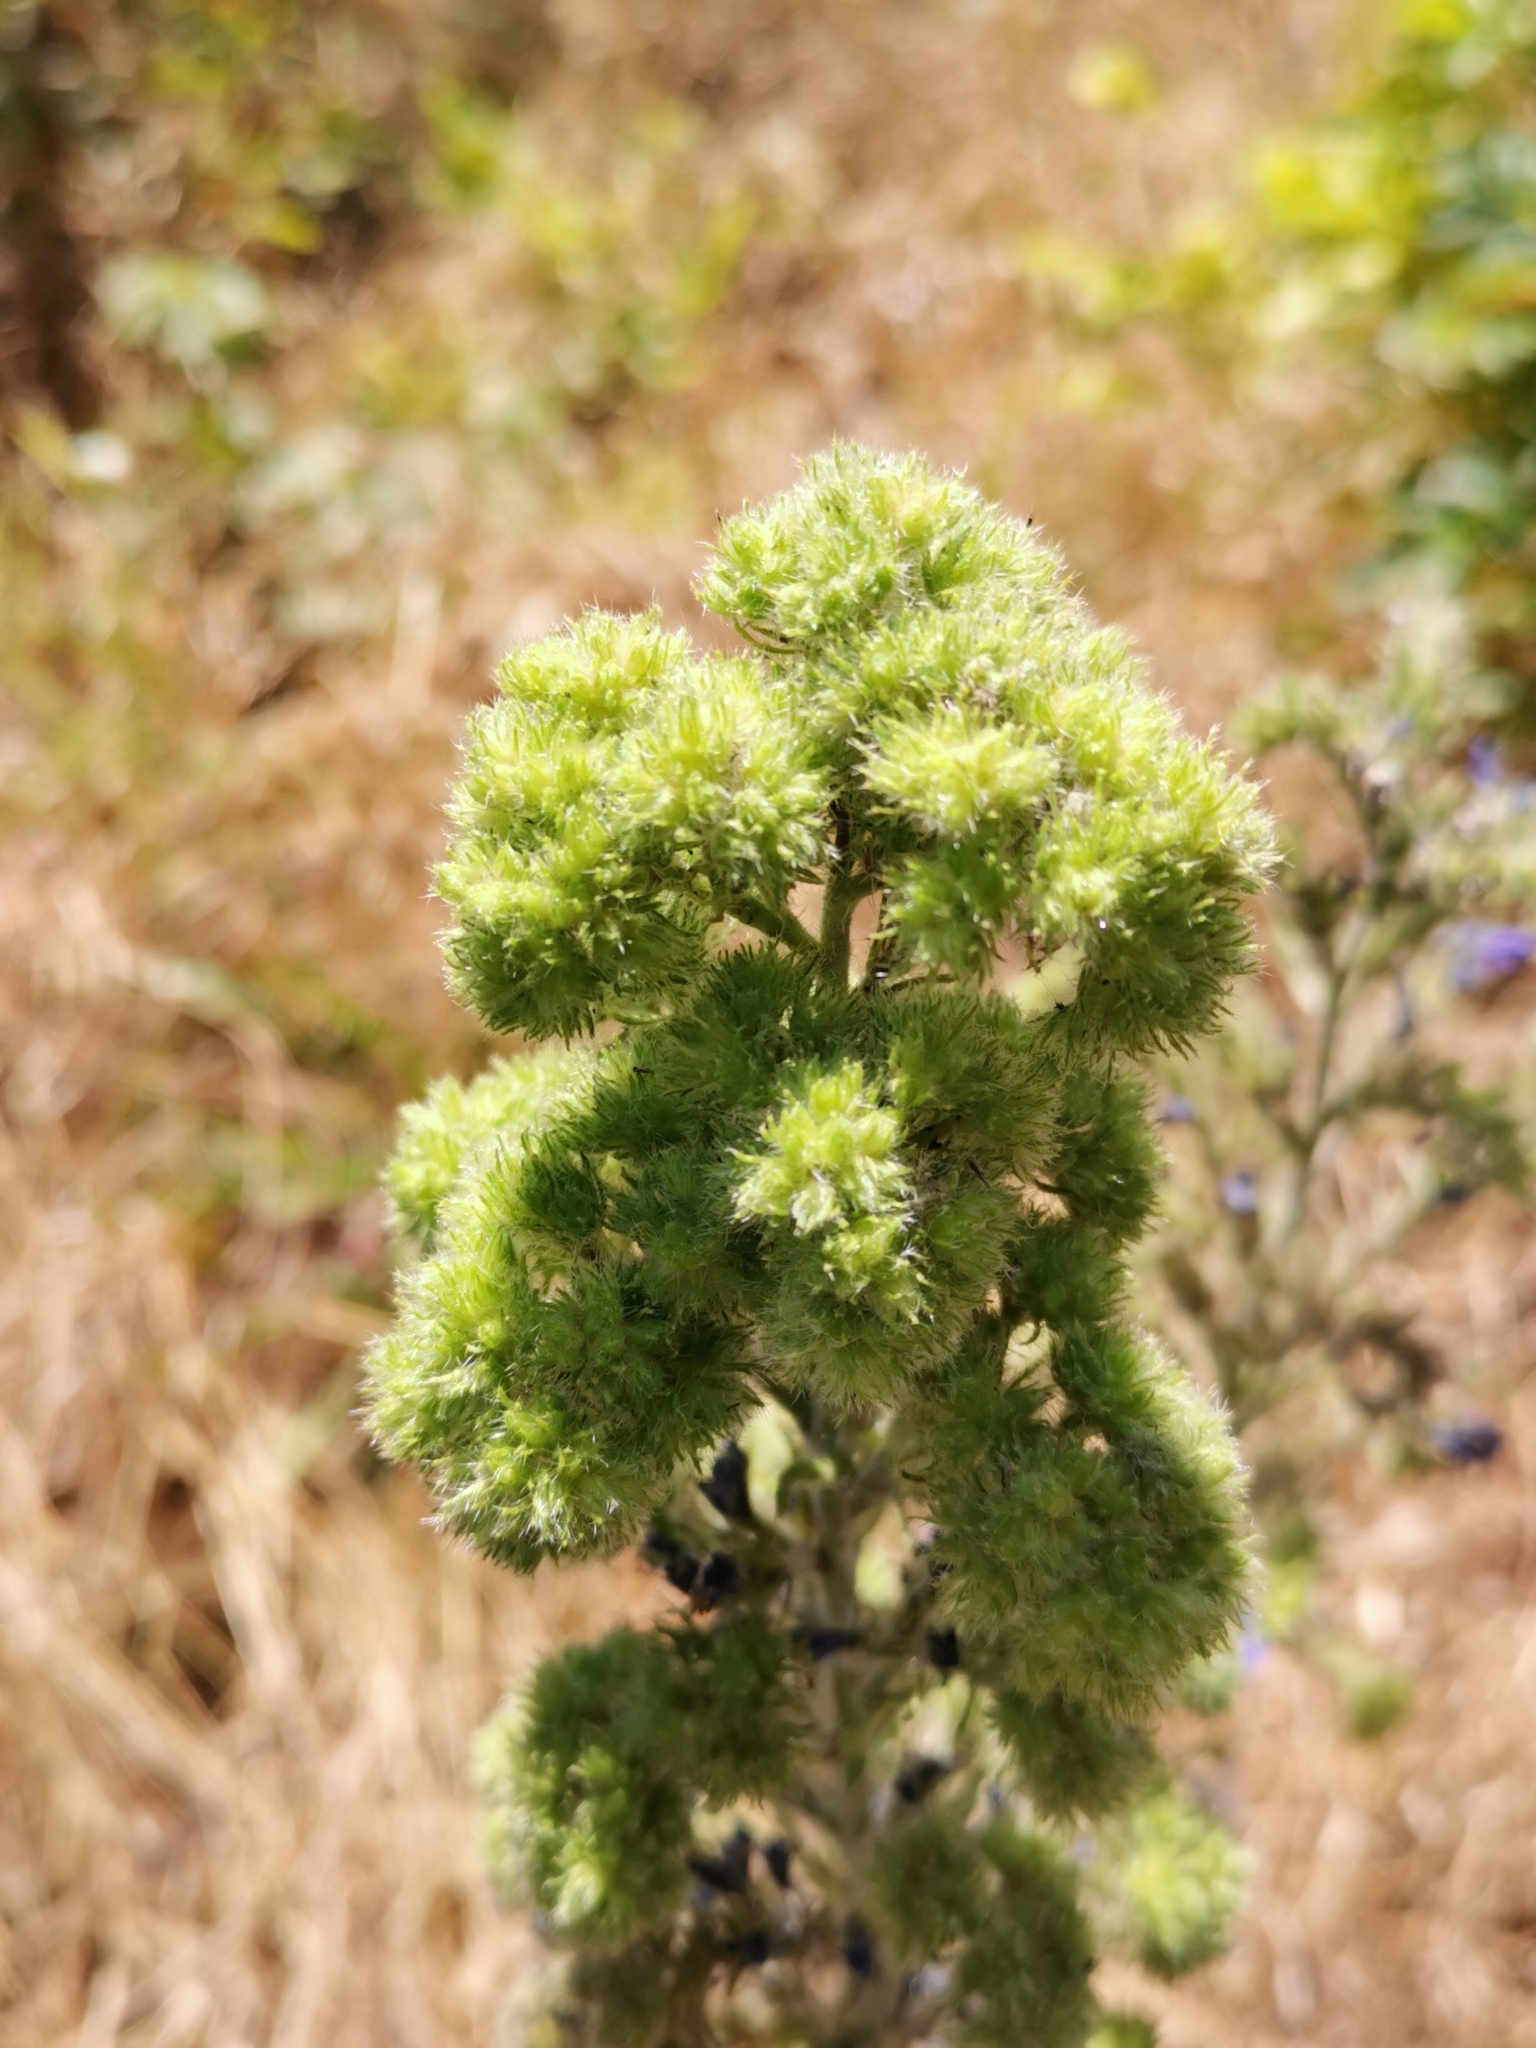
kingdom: Animalia
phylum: Arthropoda
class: Arachnida
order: Trombidiformes
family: Eriophyidae
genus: Aceria
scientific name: Aceria echii
